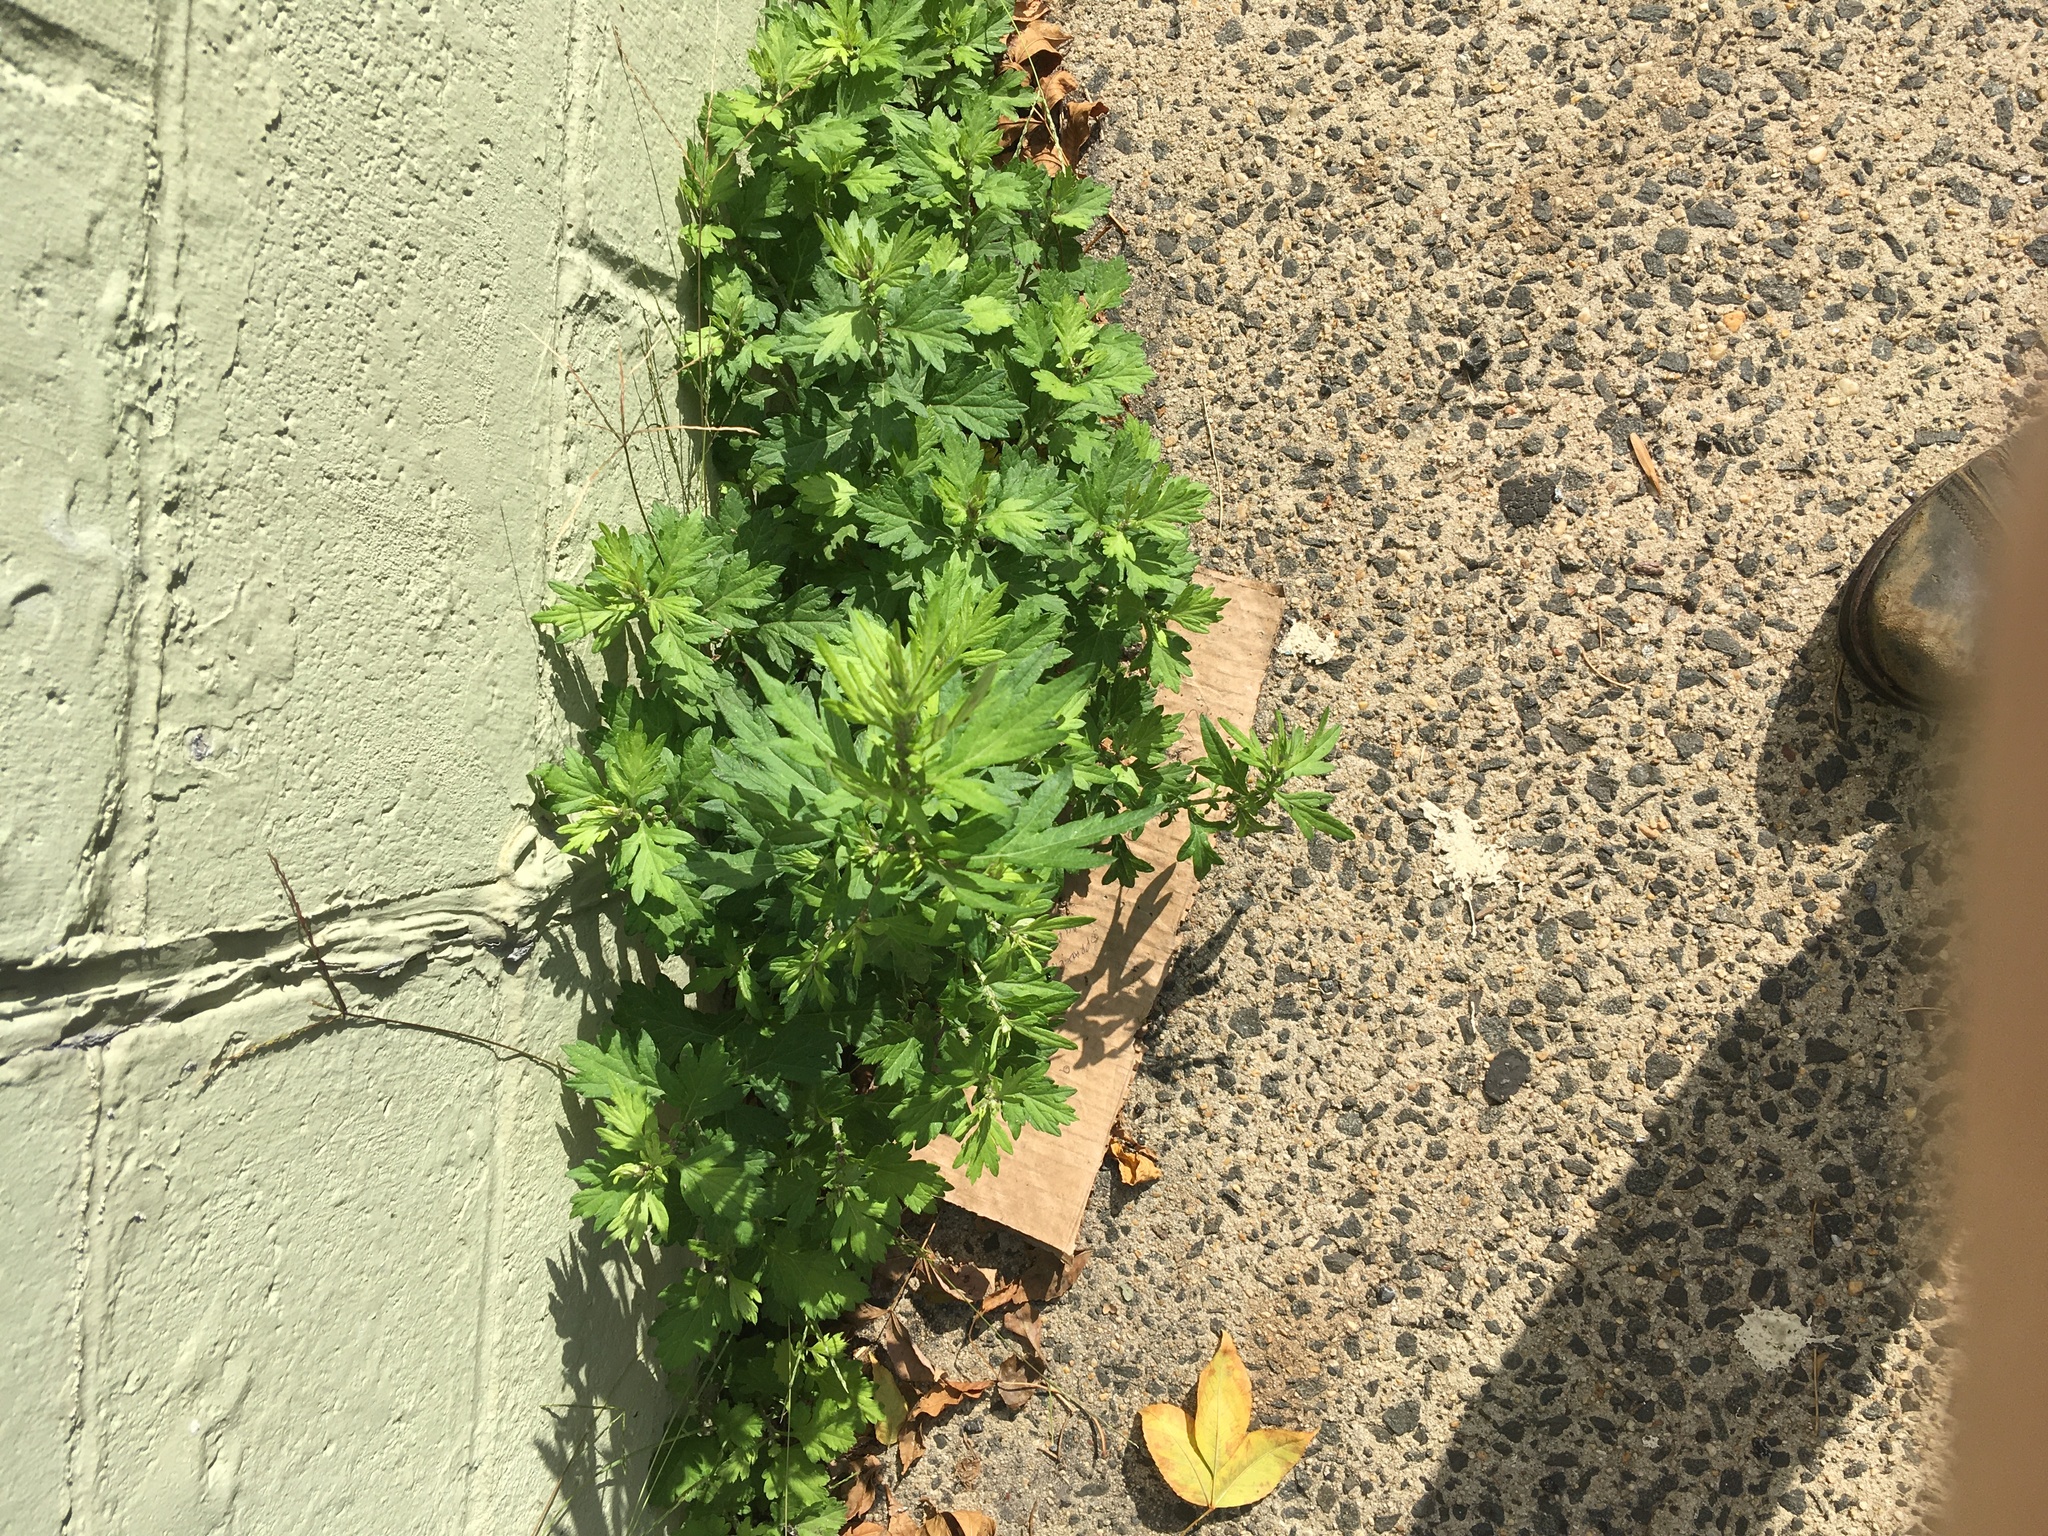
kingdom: Plantae
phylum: Tracheophyta
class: Magnoliopsida
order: Asterales
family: Asteraceae
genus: Artemisia
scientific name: Artemisia vulgaris
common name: Mugwort
